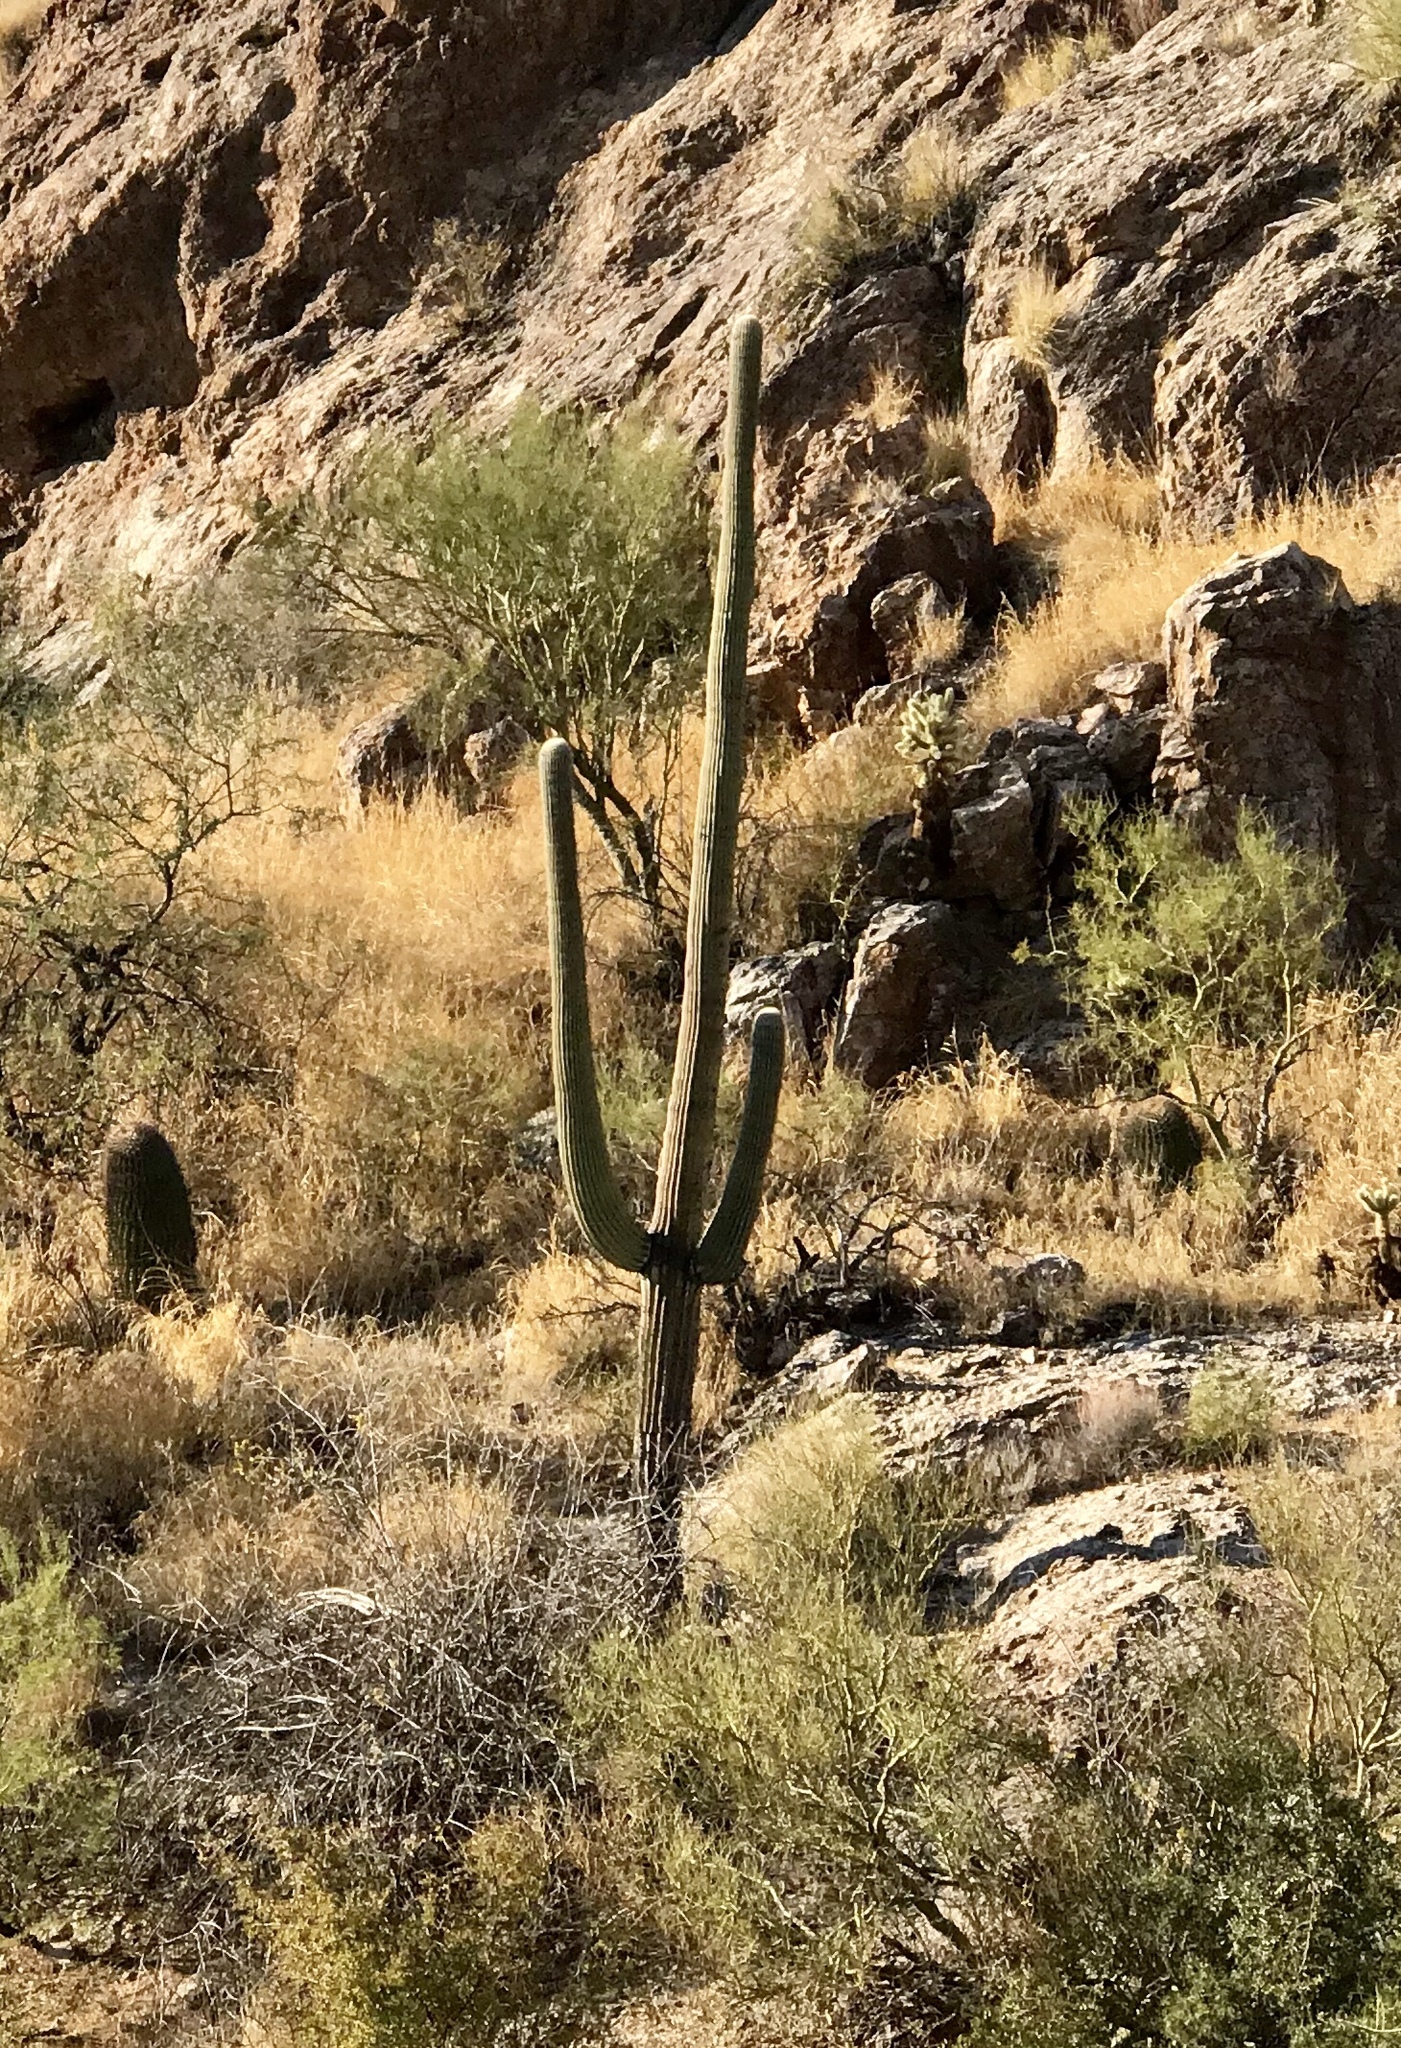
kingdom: Plantae
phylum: Tracheophyta
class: Magnoliopsida
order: Caryophyllales
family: Cactaceae
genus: Carnegiea
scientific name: Carnegiea gigantea
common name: Saguaro
